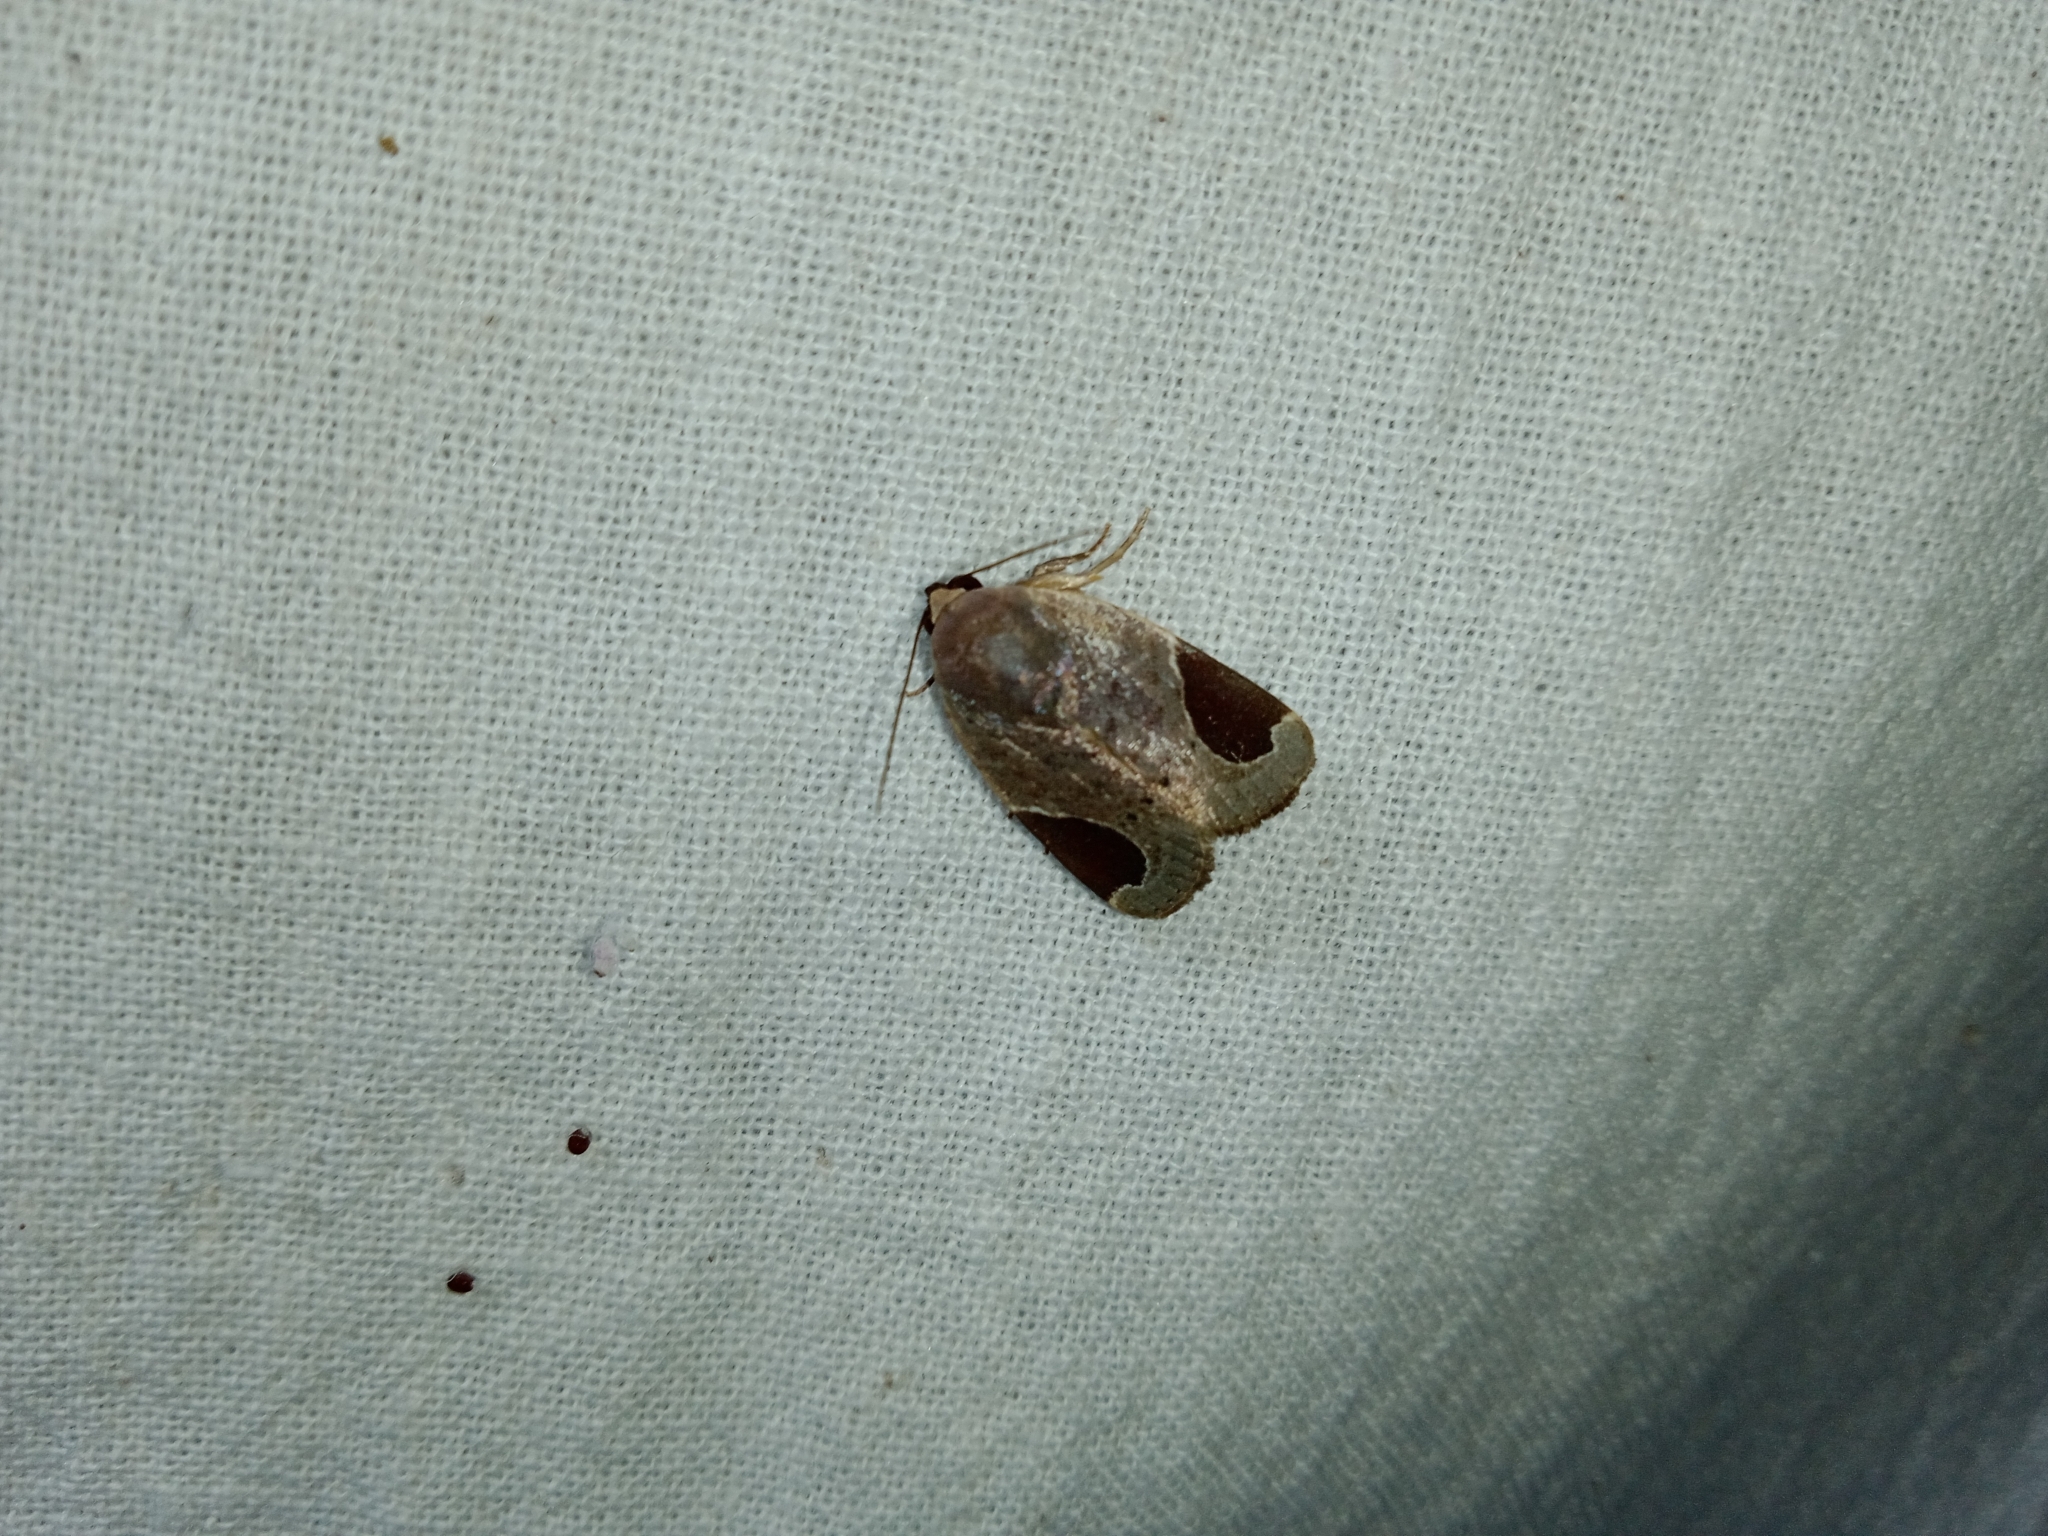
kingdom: Animalia
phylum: Arthropoda
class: Insecta
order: Lepidoptera
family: Noctuidae
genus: Dyrzela
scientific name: Dyrzela plagiata
